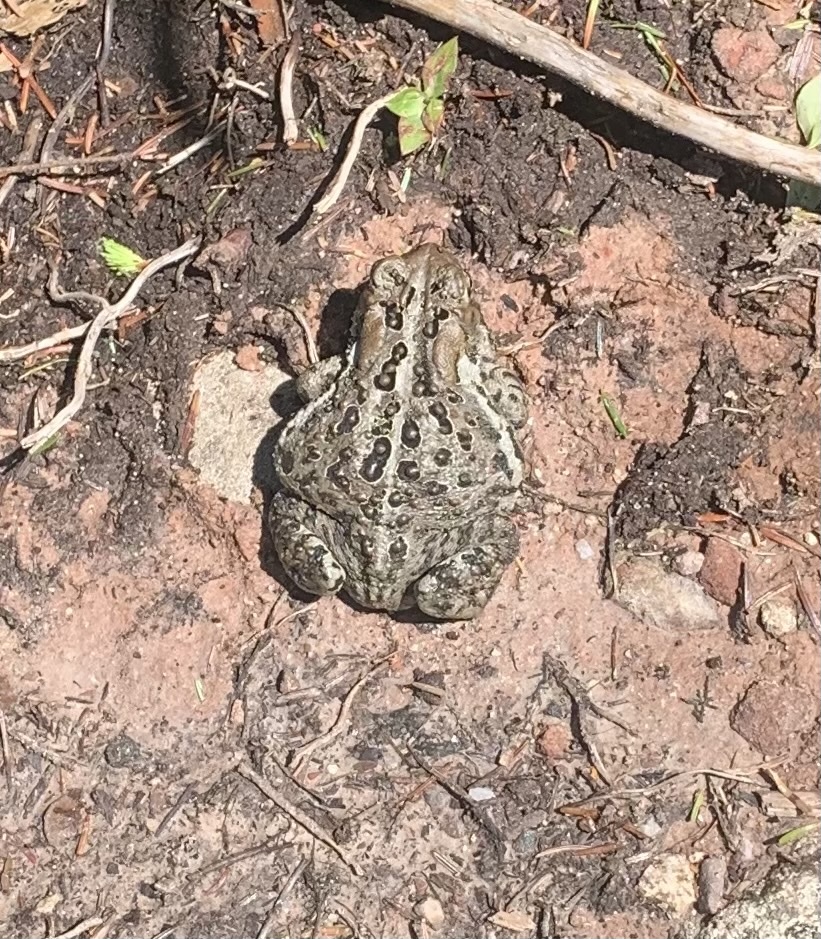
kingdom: Animalia
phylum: Chordata
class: Amphibia
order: Anura
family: Bufonidae
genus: Anaxyrus
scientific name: Anaxyrus americanus
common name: American toad
